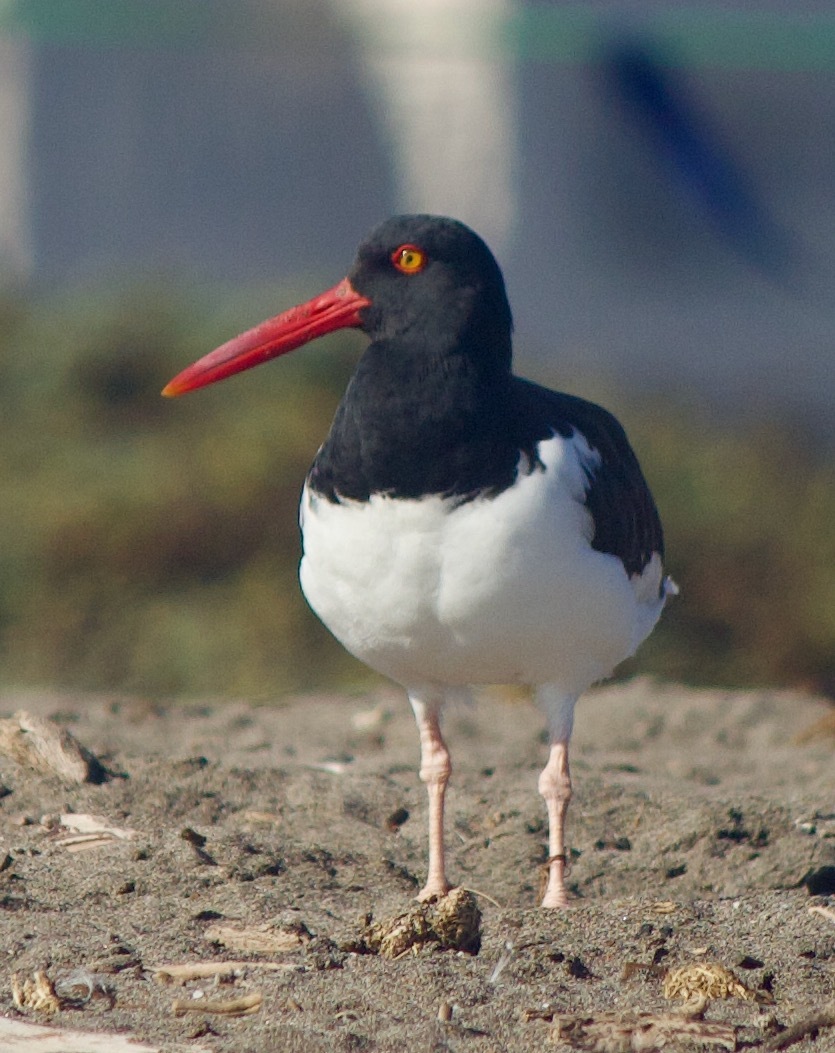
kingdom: Animalia
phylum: Chordata
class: Aves
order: Charadriiformes
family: Haematopodidae
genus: Haematopus
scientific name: Haematopus palliatus
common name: American oystercatcher
